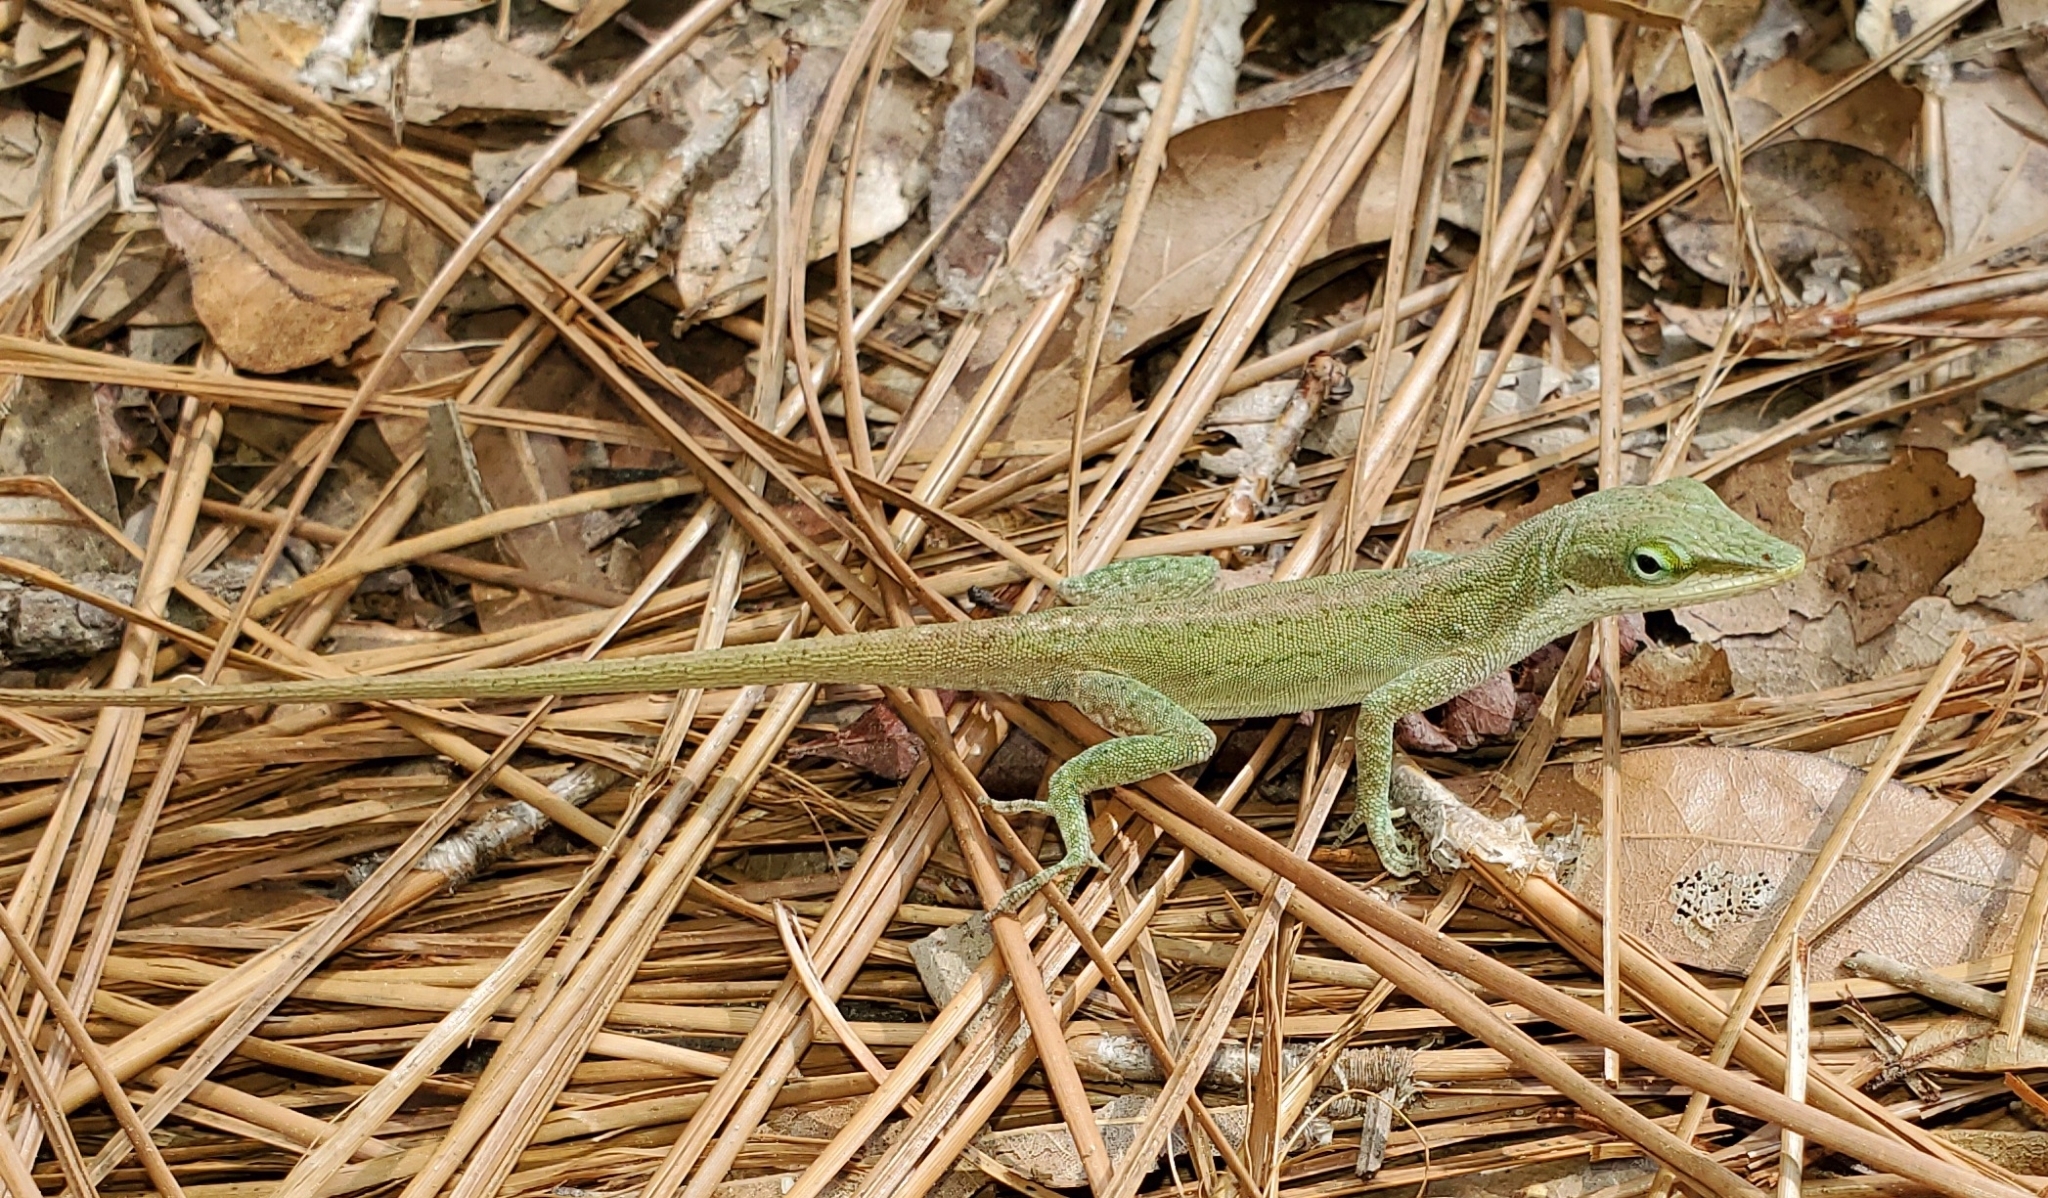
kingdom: Animalia
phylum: Chordata
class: Squamata
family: Dactyloidae
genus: Anolis
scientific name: Anolis carolinensis
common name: Green anole
